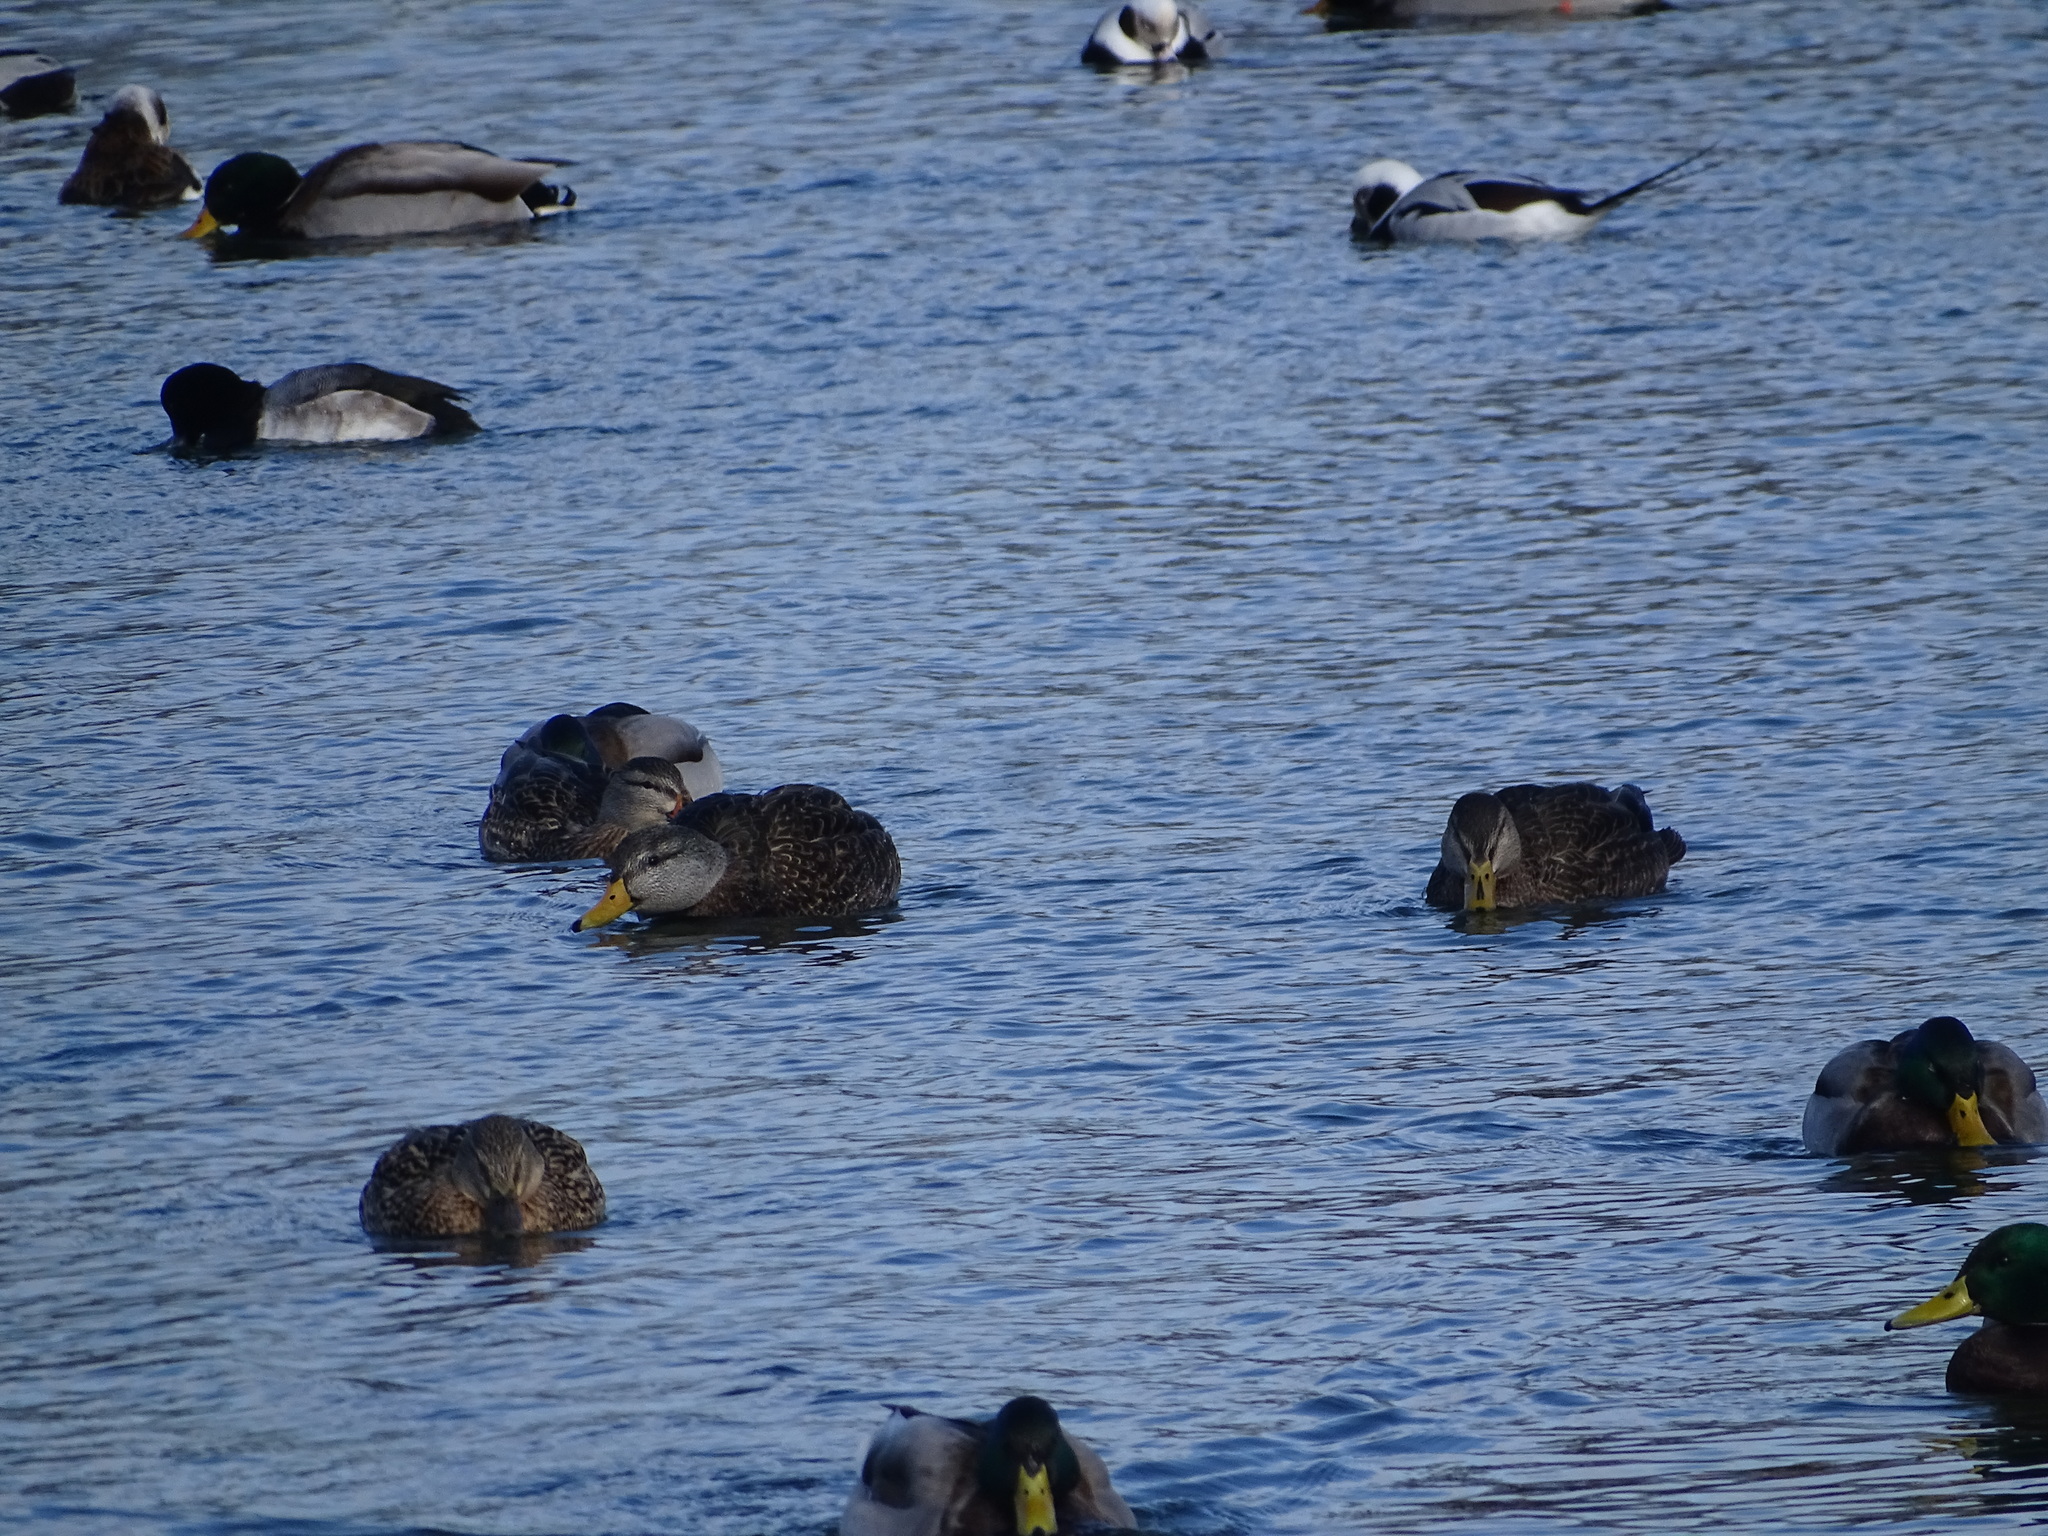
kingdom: Animalia
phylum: Chordata
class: Aves
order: Anseriformes
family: Anatidae
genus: Anas
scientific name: Anas rubripes
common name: American black duck
